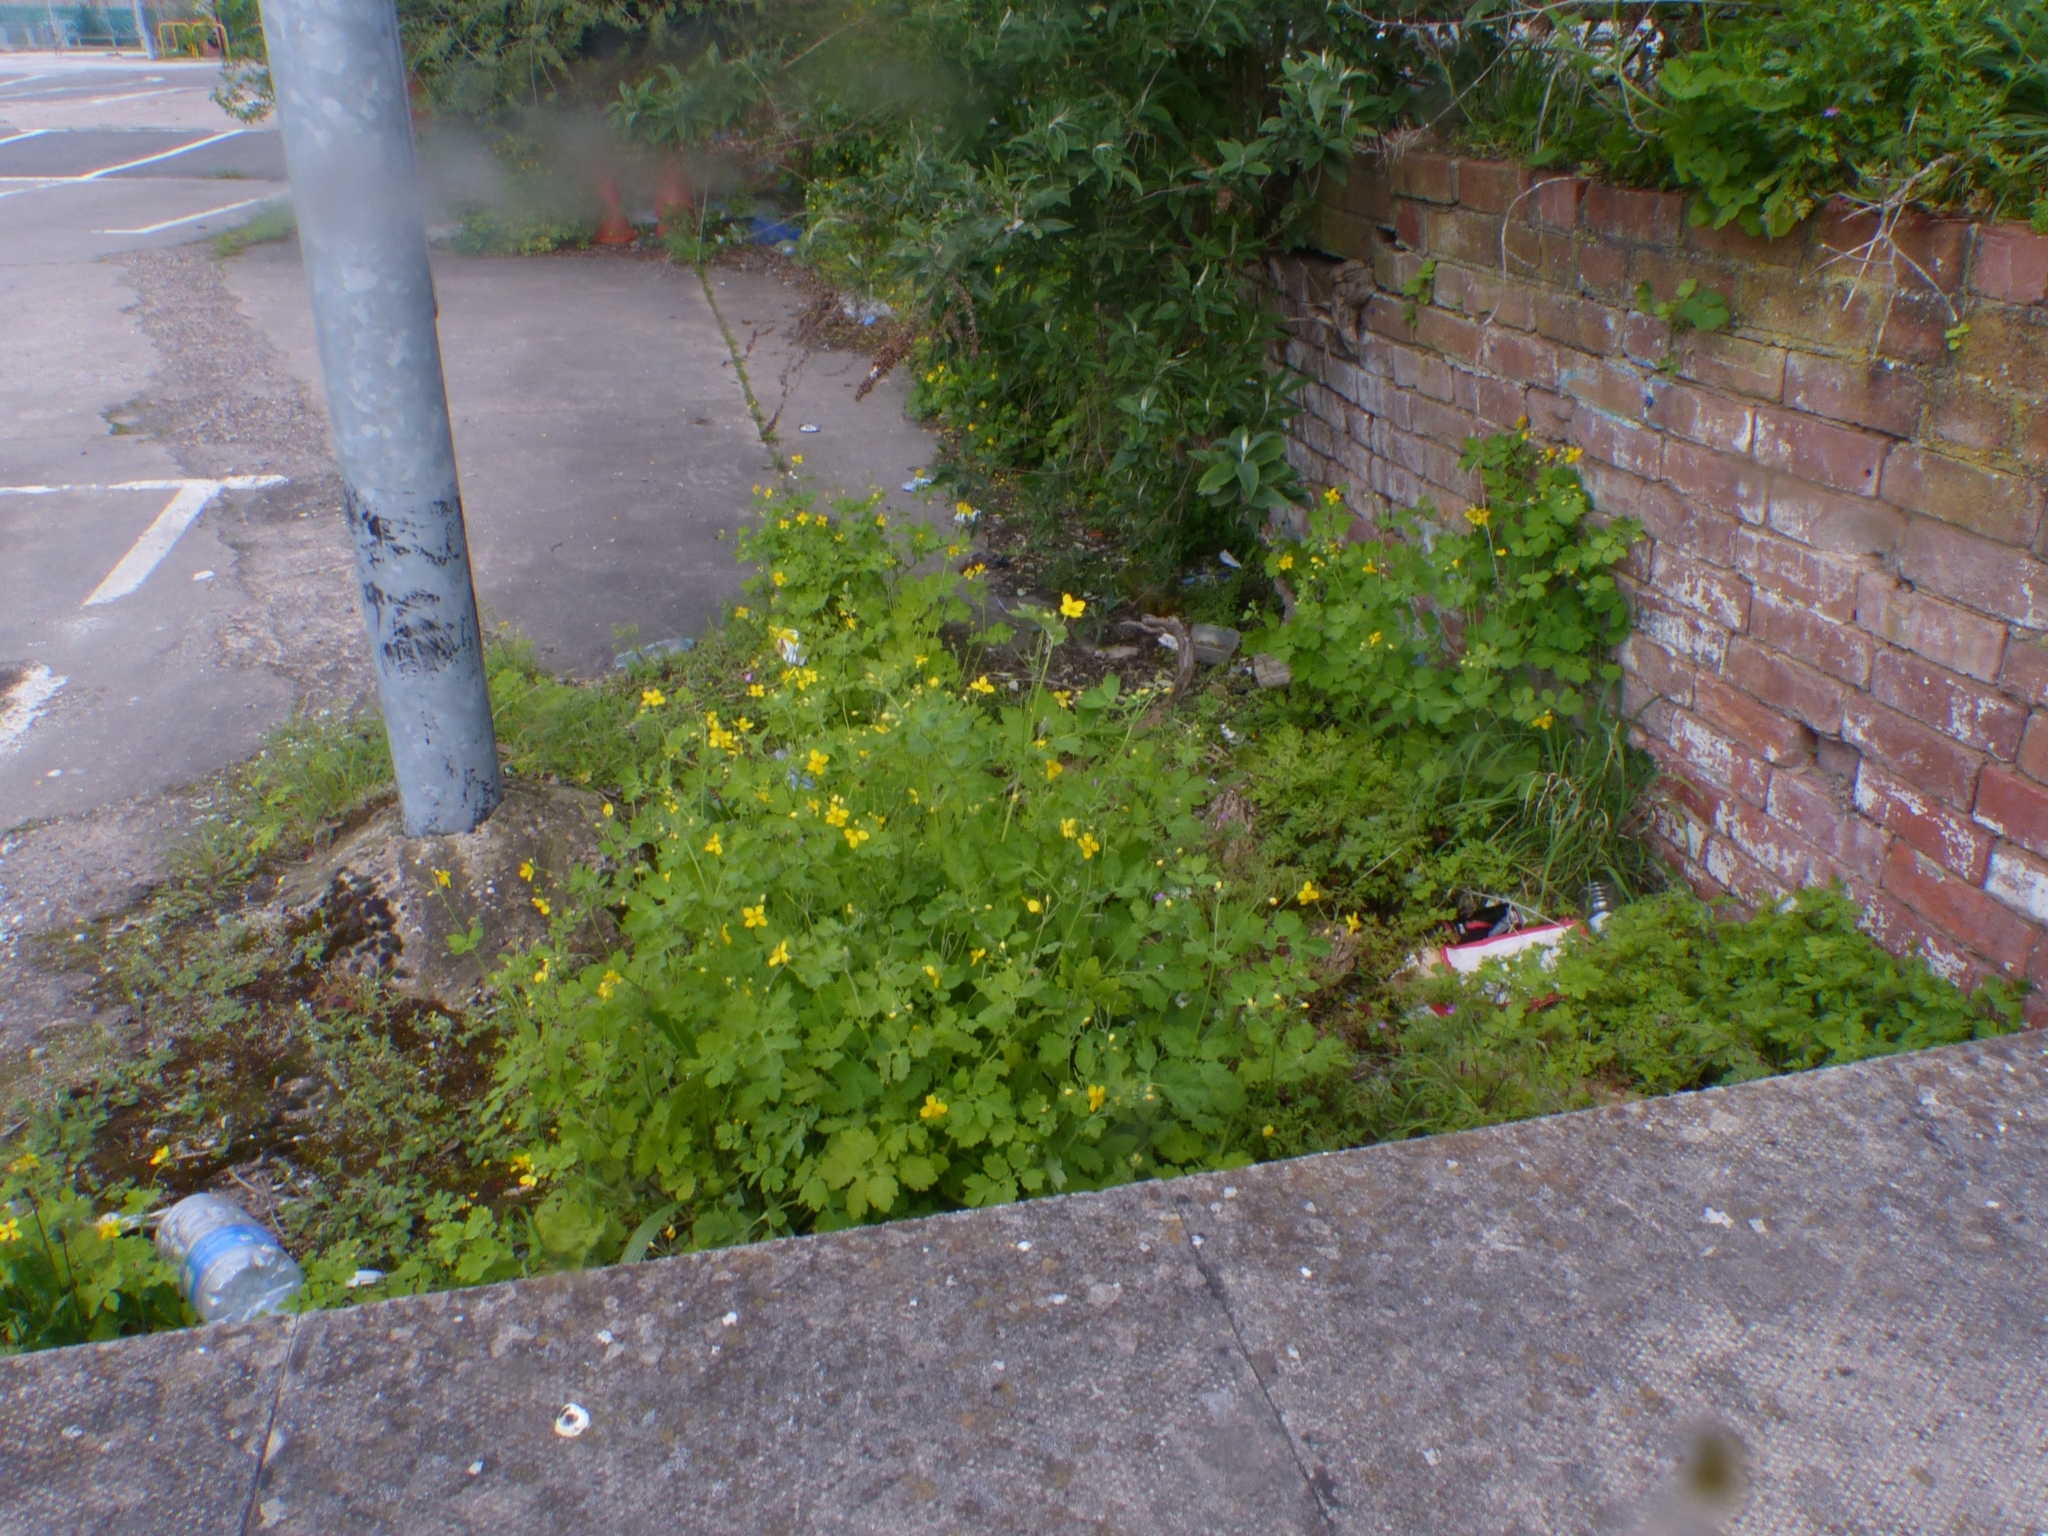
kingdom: Plantae
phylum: Tracheophyta
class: Magnoliopsida
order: Ranunculales
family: Papaveraceae
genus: Chelidonium
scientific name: Chelidonium majus
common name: Greater celandine
